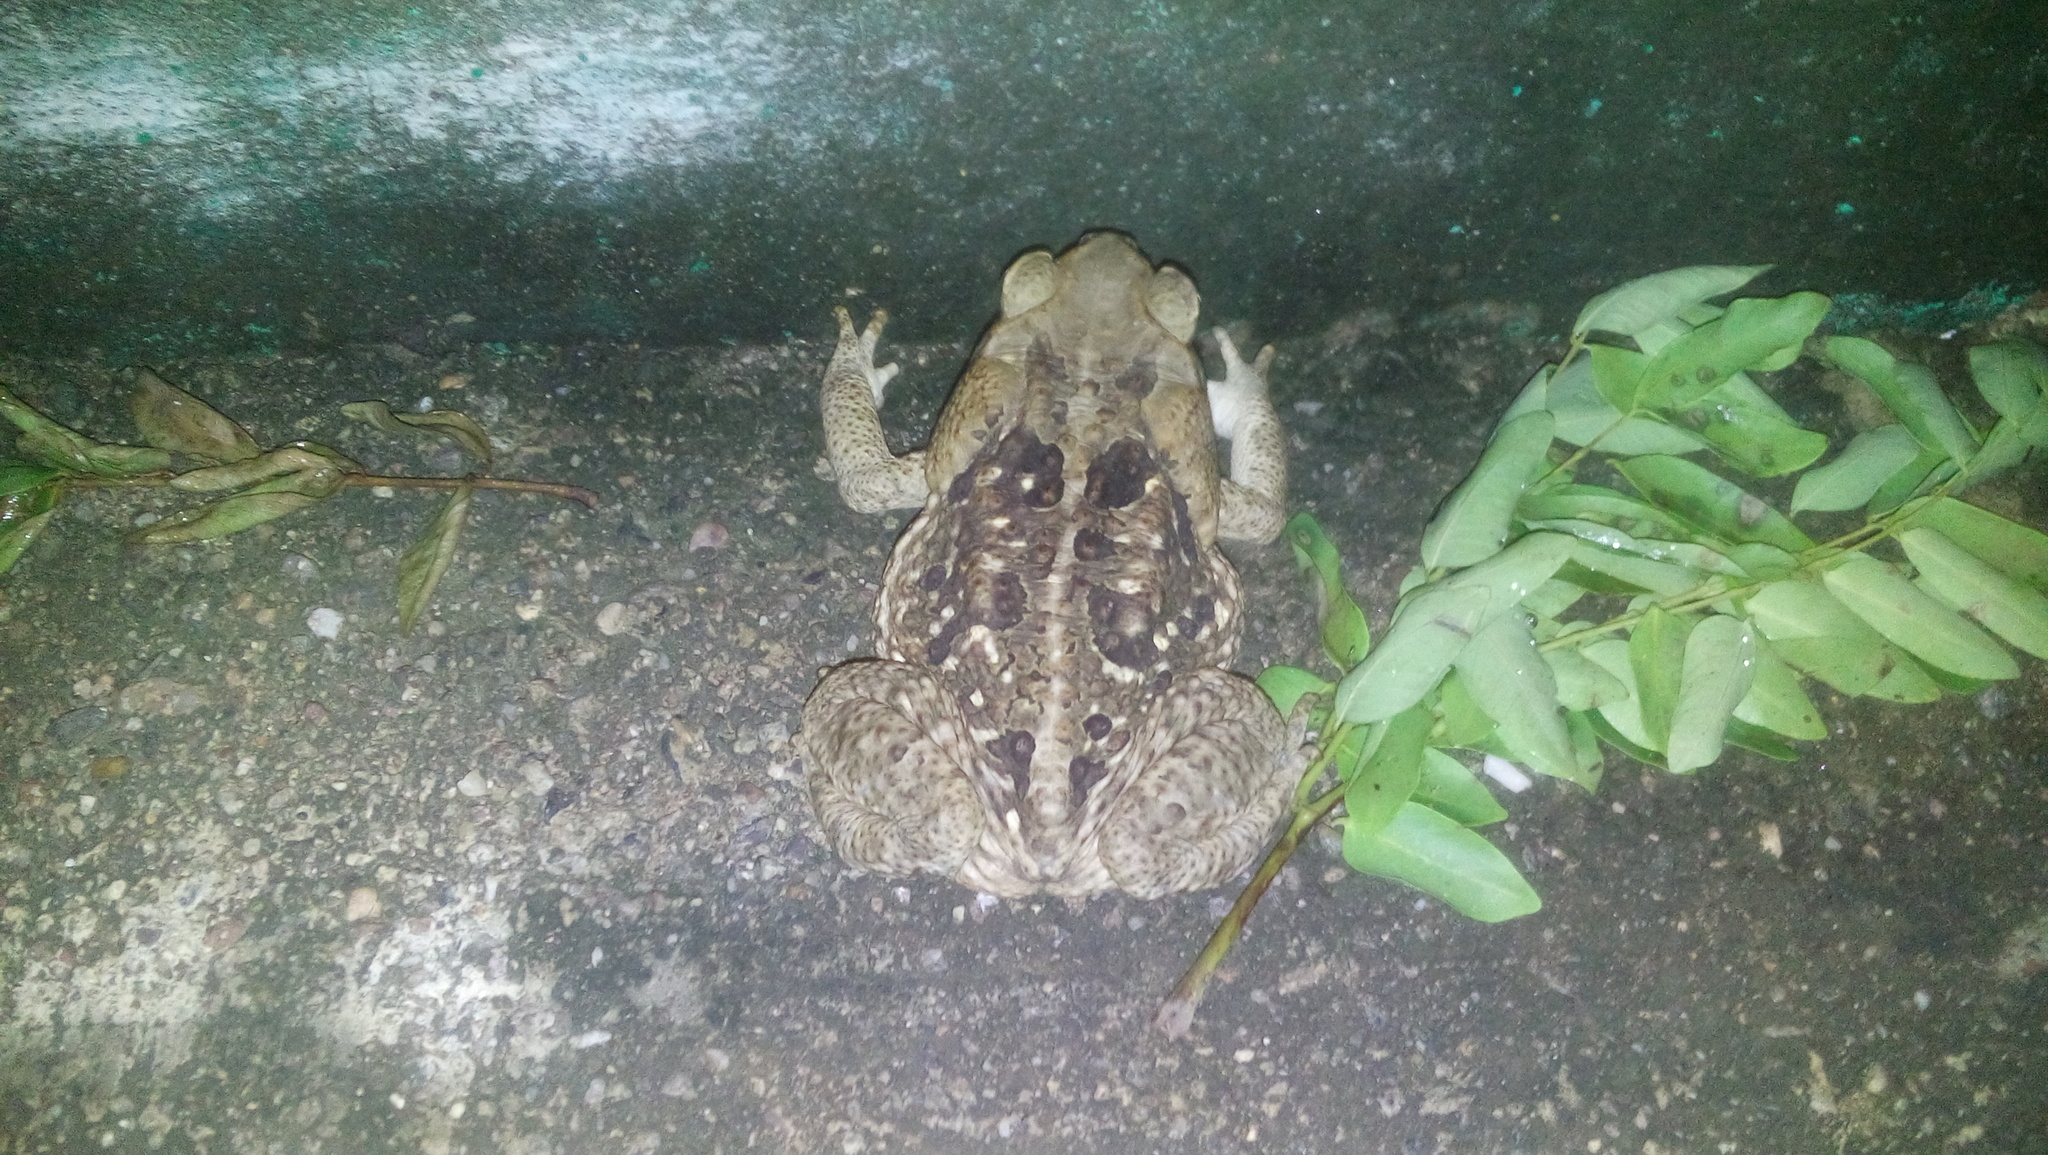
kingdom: Animalia
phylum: Chordata
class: Amphibia
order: Anura
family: Bufonidae
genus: Rhinella
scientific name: Rhinella horribilis
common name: Mesoamerican cane toad
